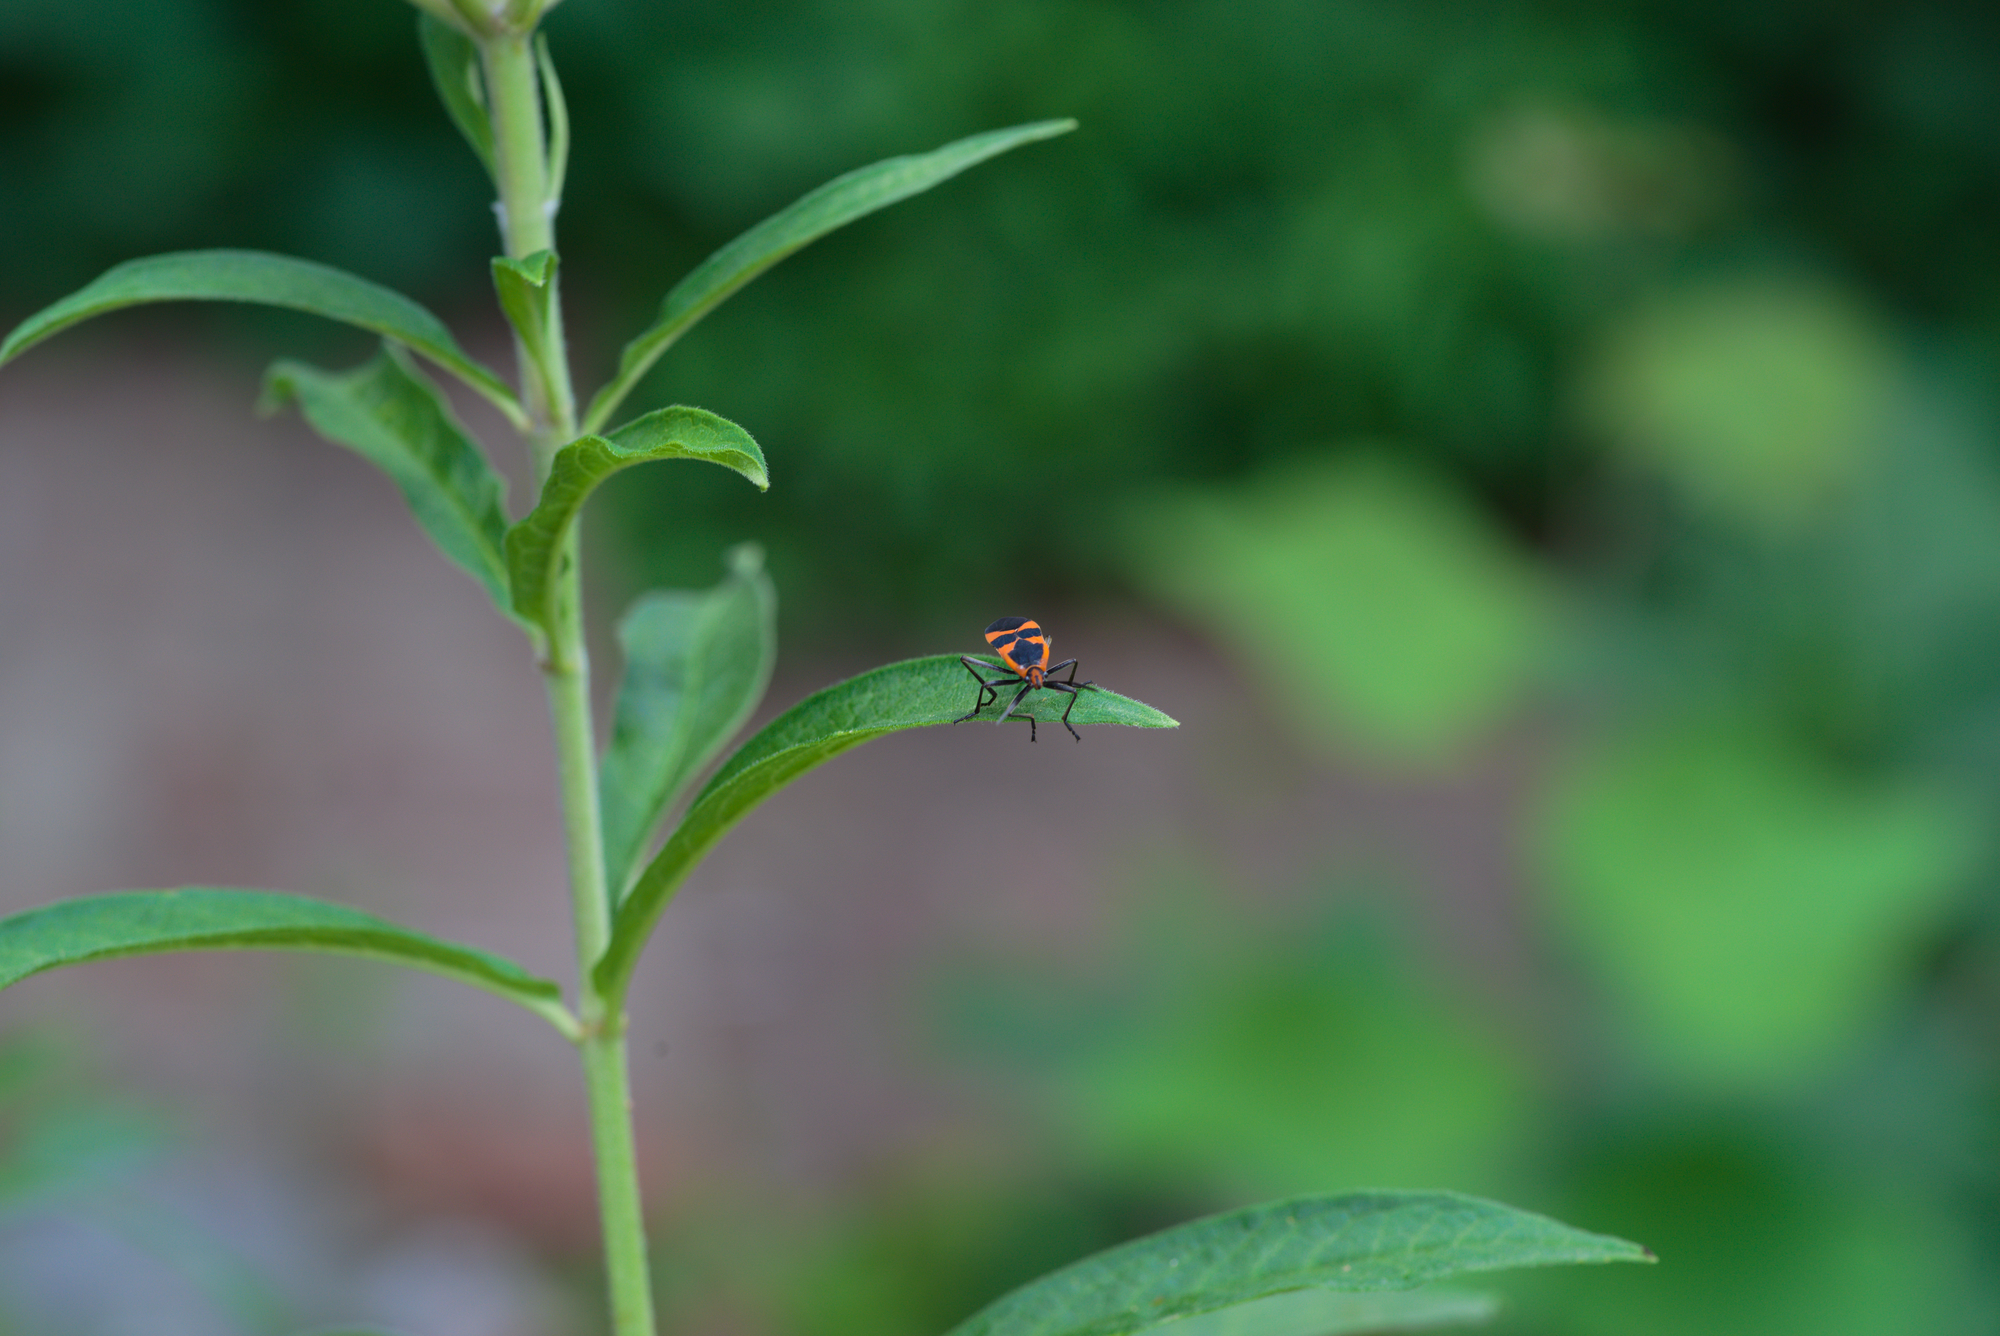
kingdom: Animalia
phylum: Arthropoda
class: Insecta
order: Hemiptera
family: Lygaeidae
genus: Oncopeltus
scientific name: Oncopeltus fasciatus
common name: Large milkweed bug
